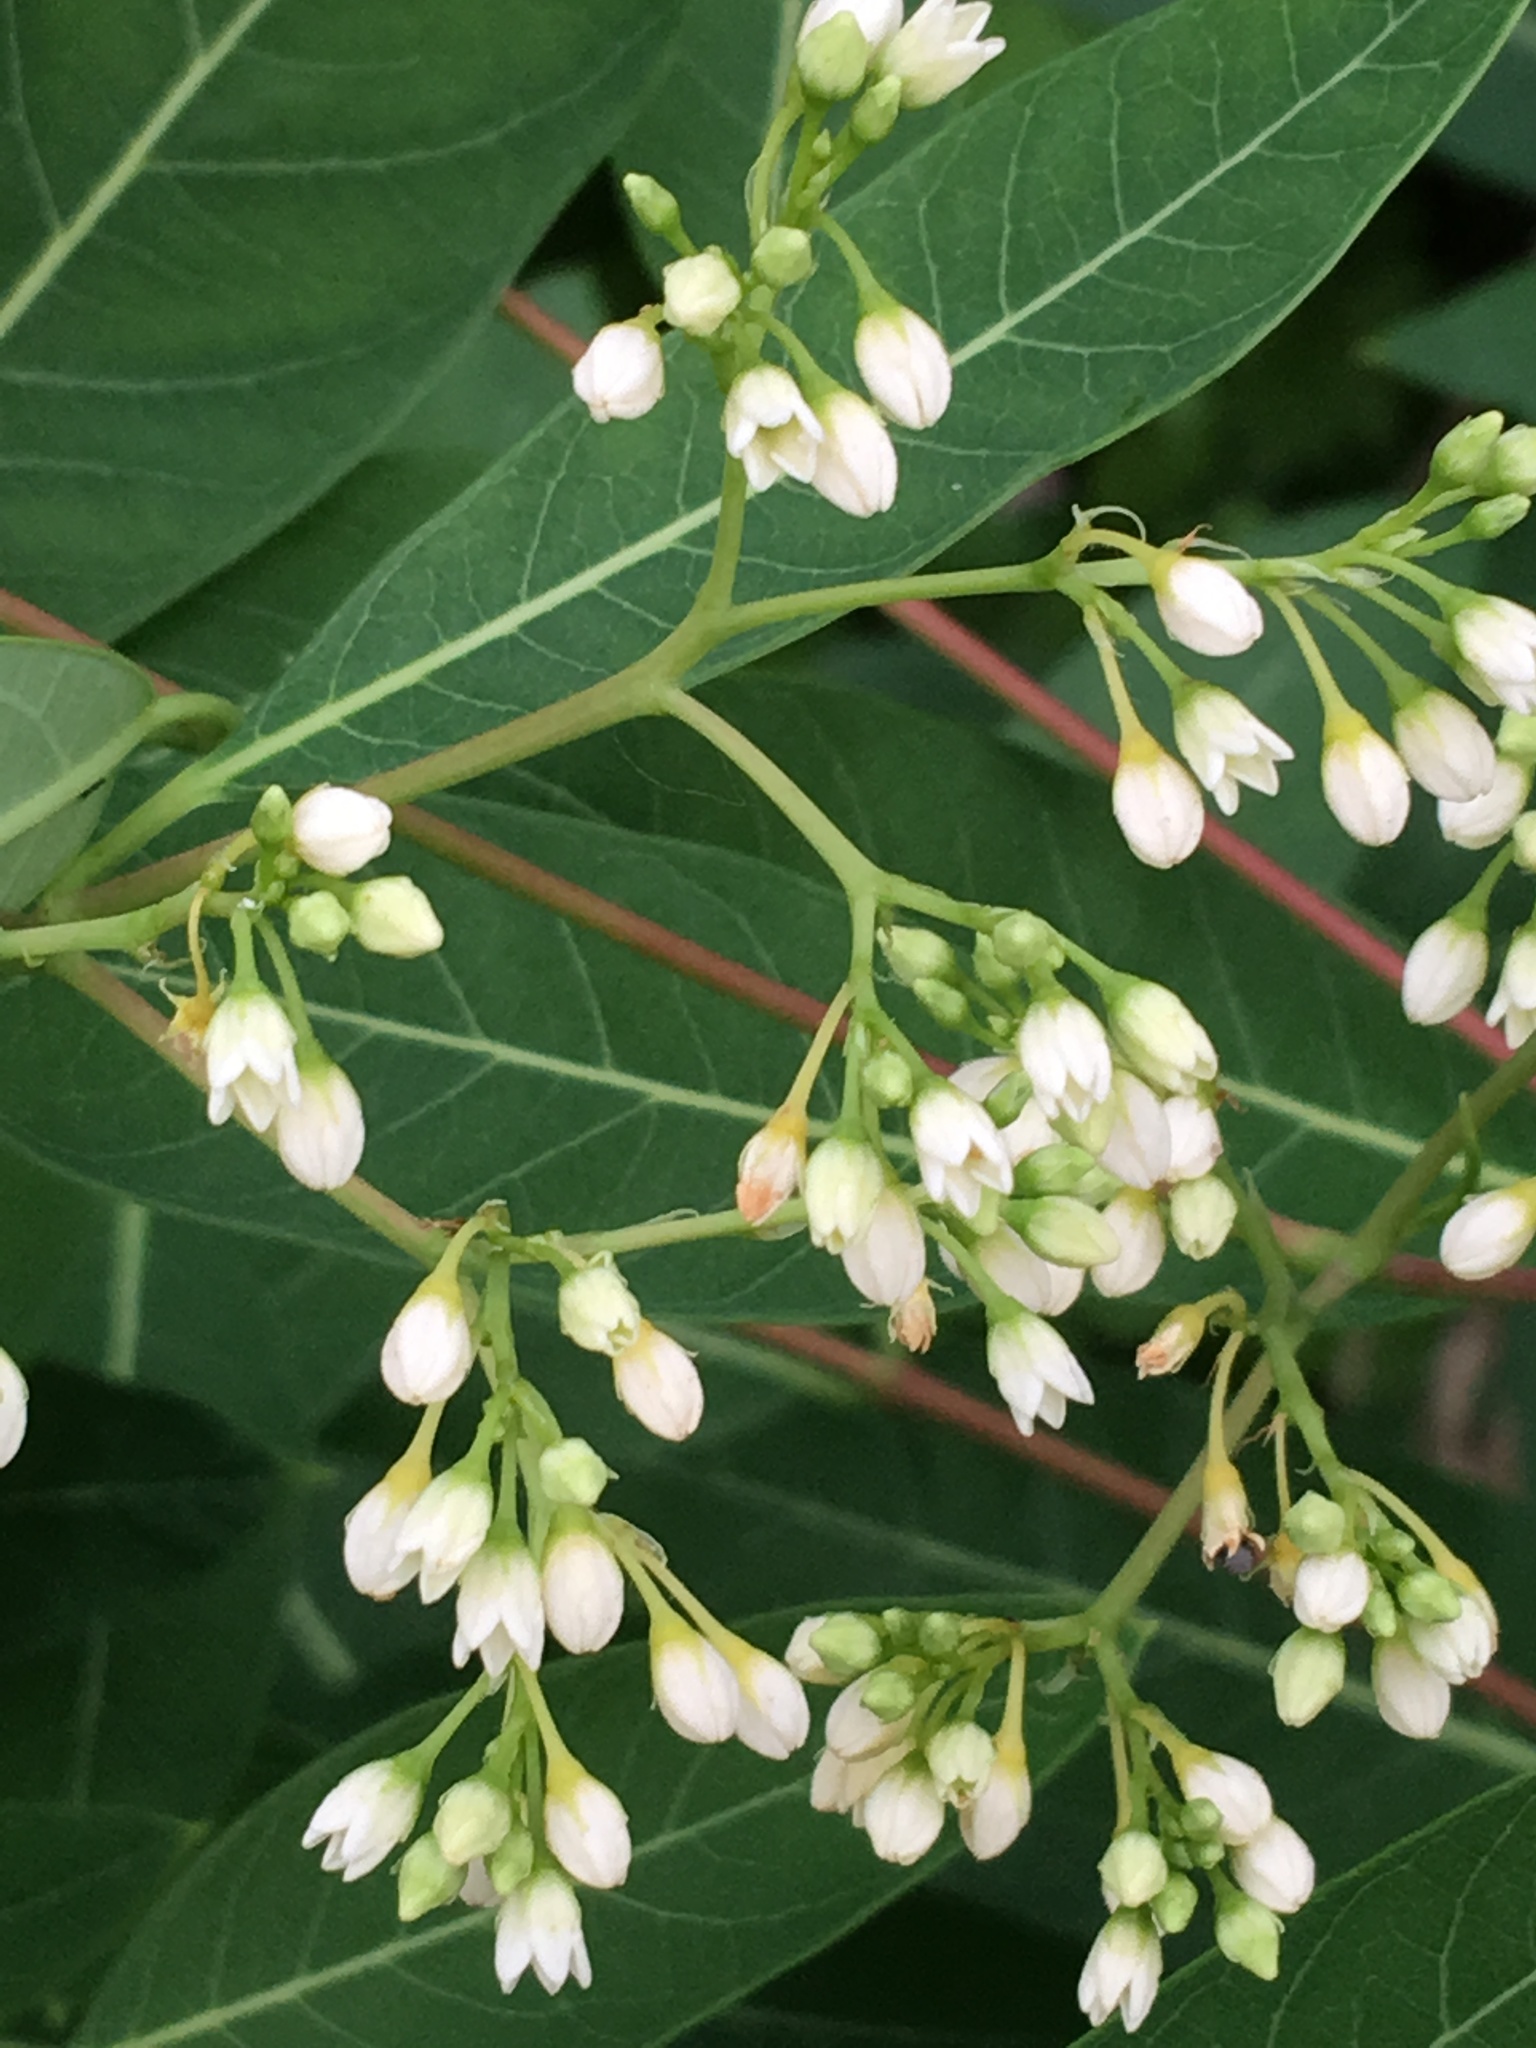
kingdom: Plantae
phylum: Tracheophyta
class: Magnoliopsida
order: Gentianales
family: Apocynaceae
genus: Apocynum
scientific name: Apocynum cannabinum
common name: Hemp dogbane
